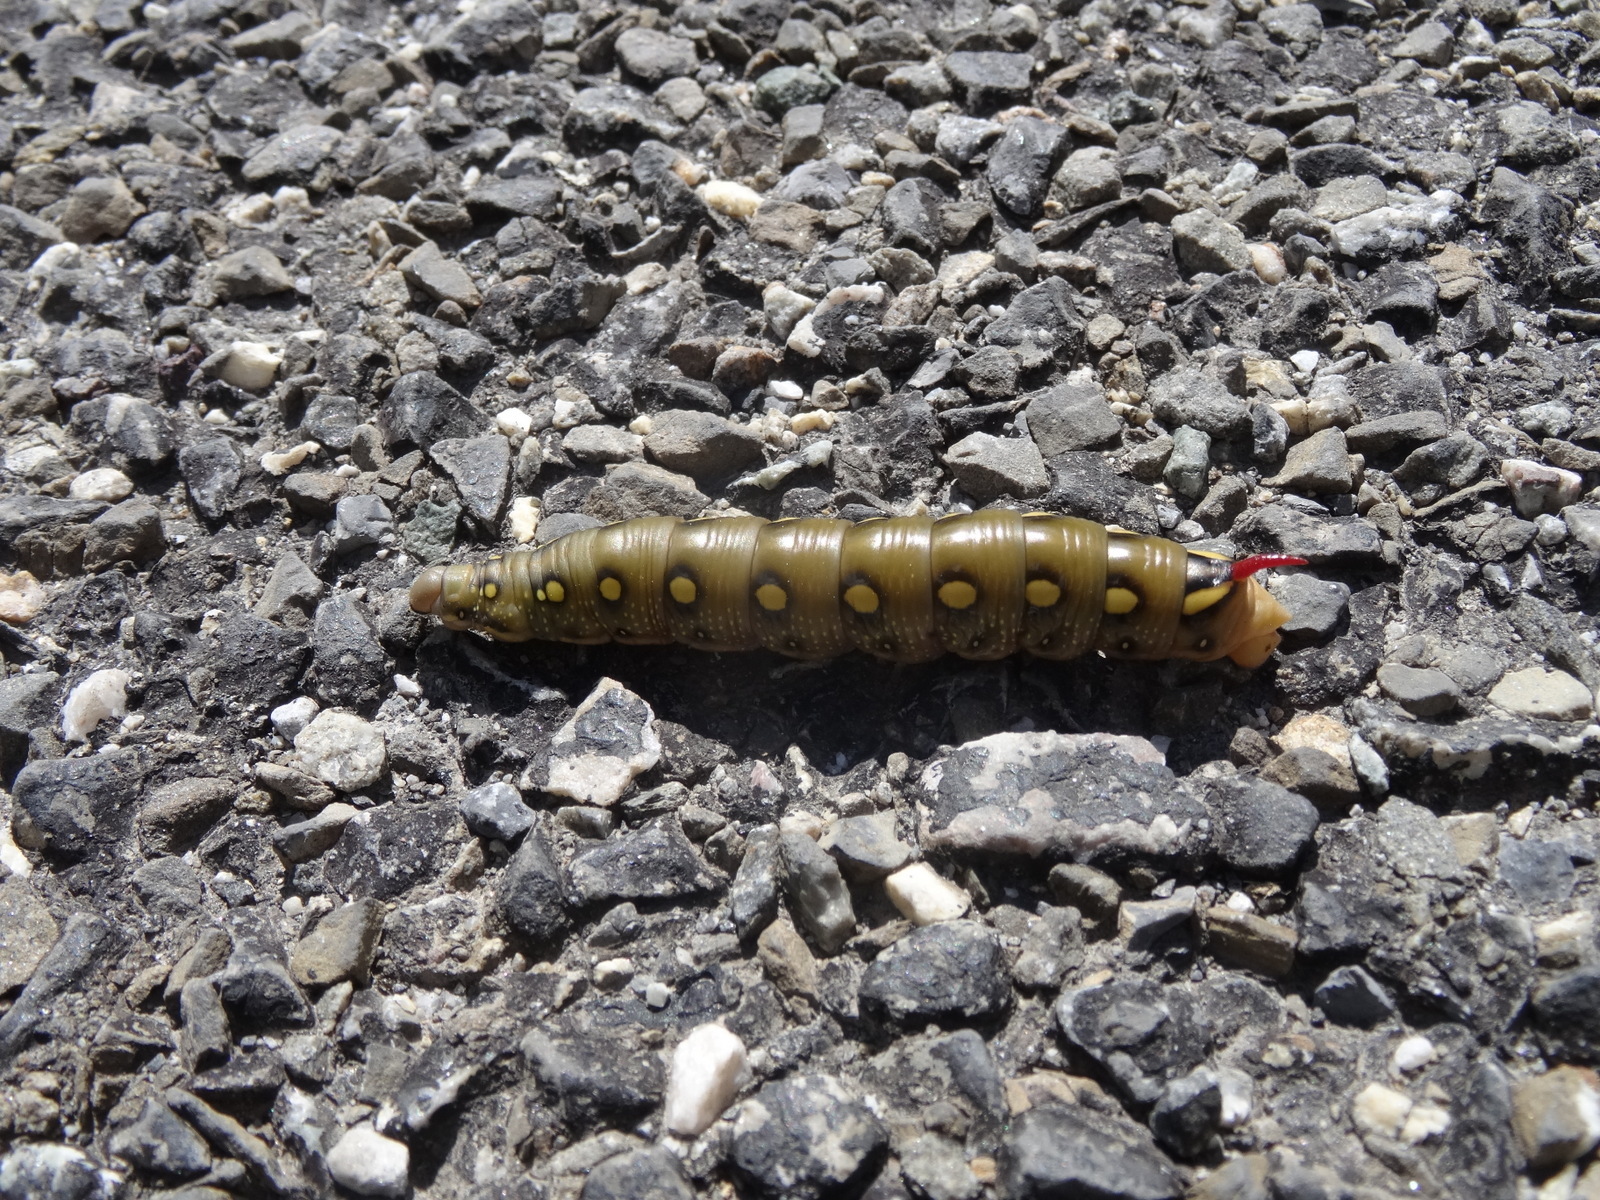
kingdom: Animalia
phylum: Arthropoda
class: Insecta
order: Lepidoptera
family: Sphingidae
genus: Hyles
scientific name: Hyles gallii
